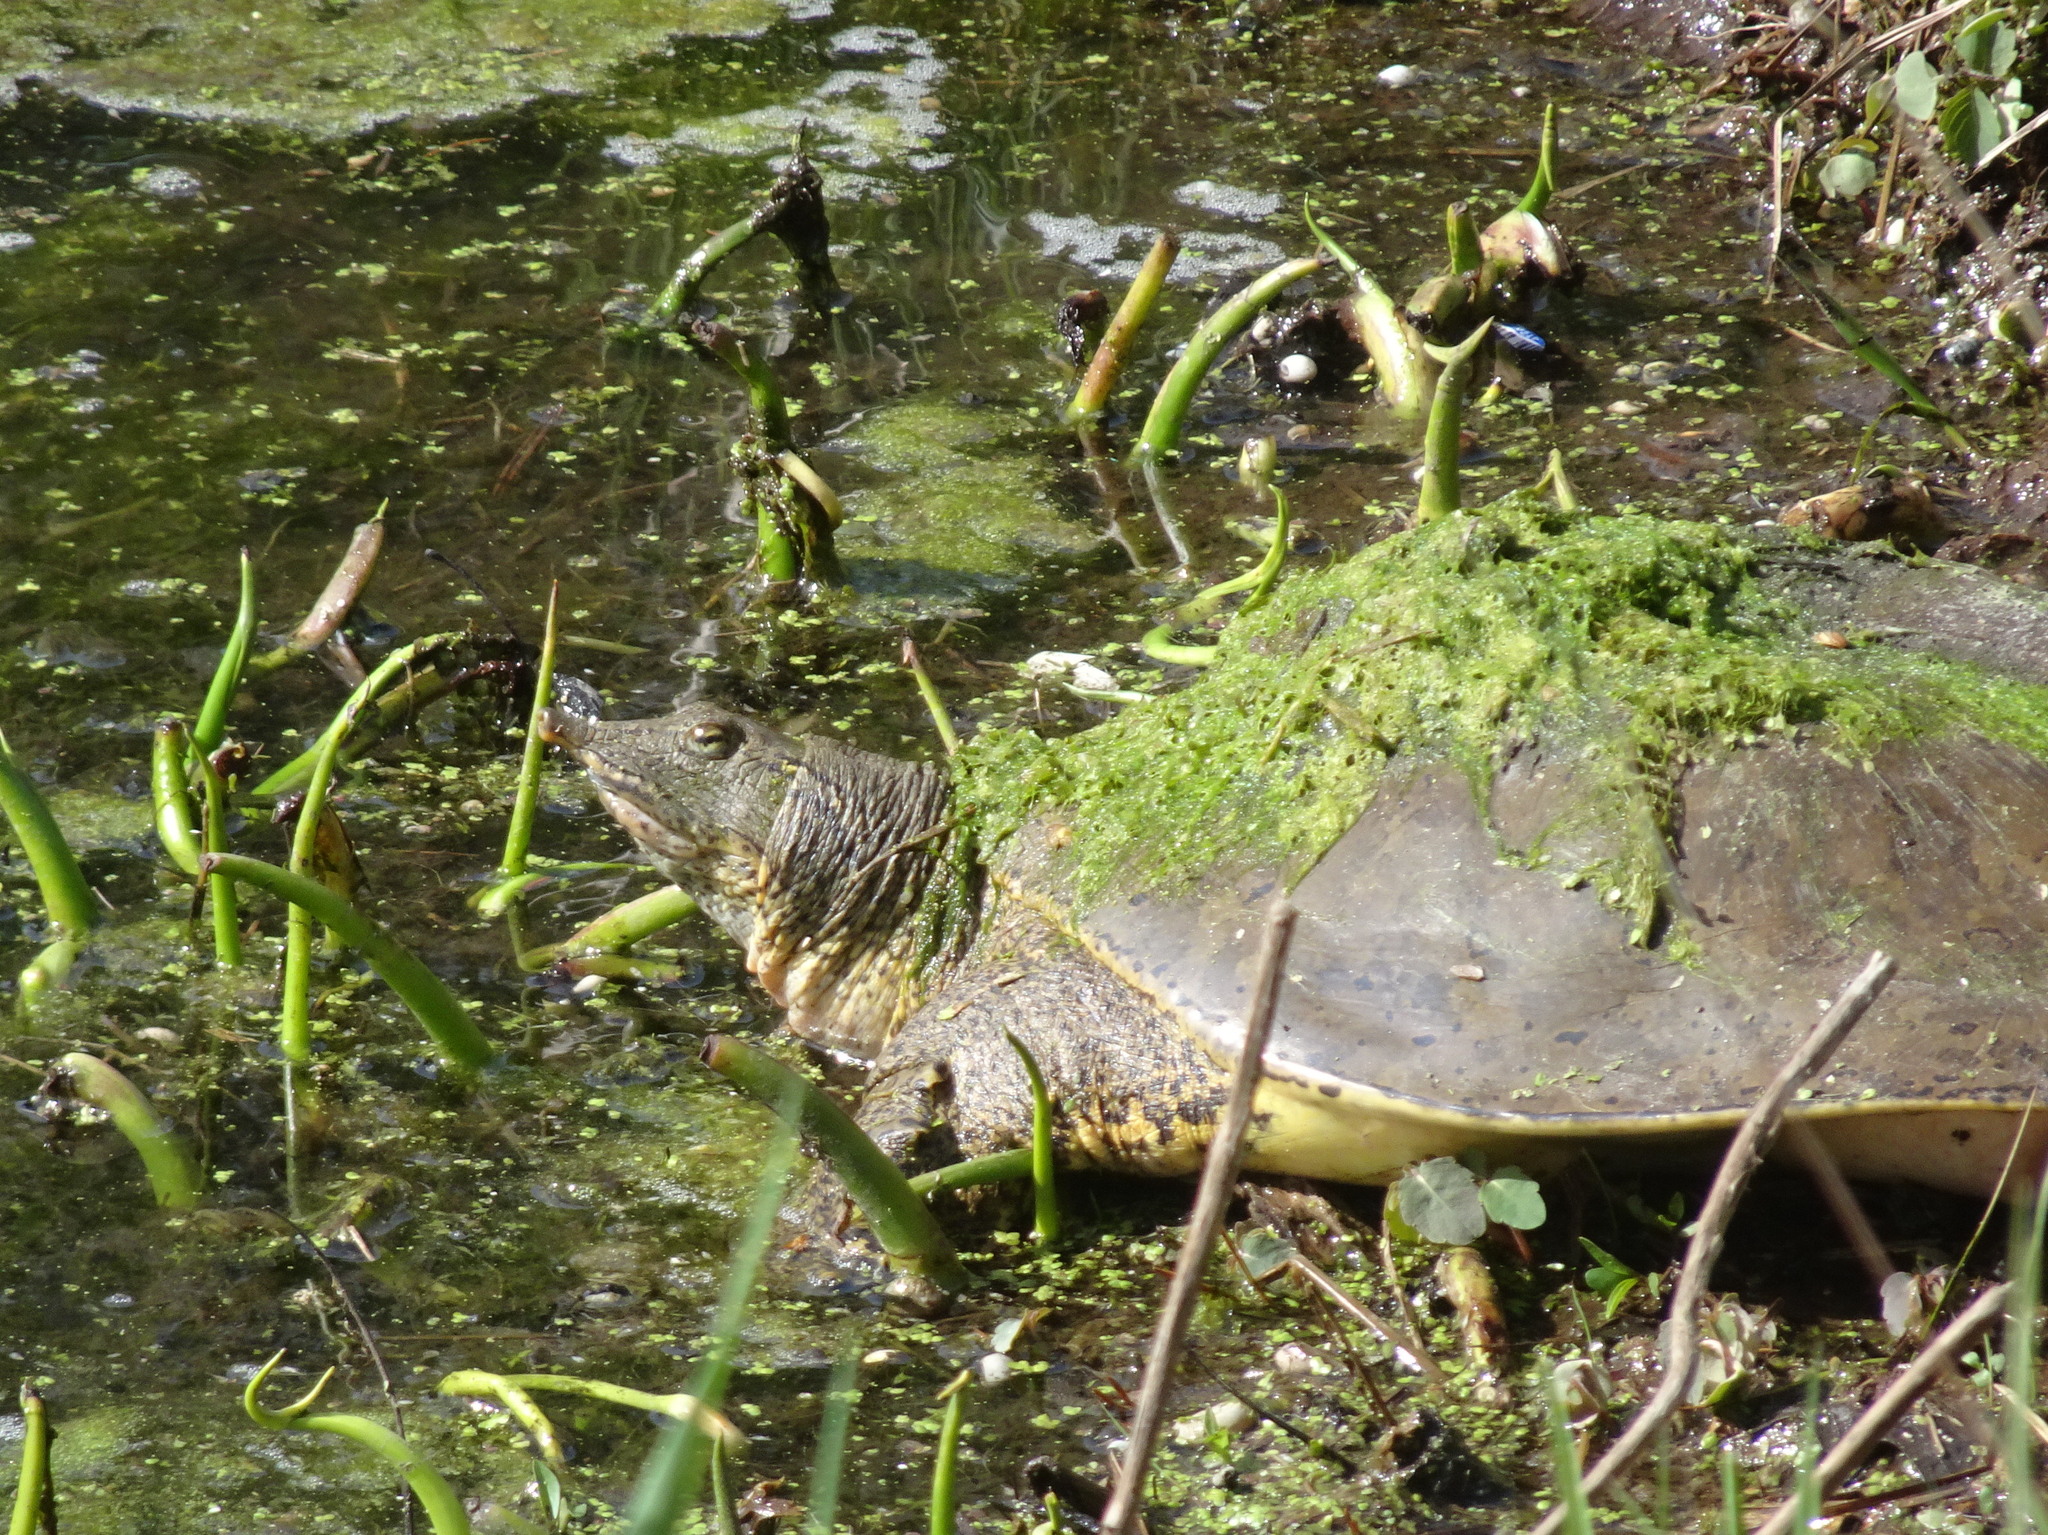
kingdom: Animalia
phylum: Chordata
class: Testudines
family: Trionychidae
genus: Apalone
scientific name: Apalone spinifera
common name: Spiny softshell turtle
